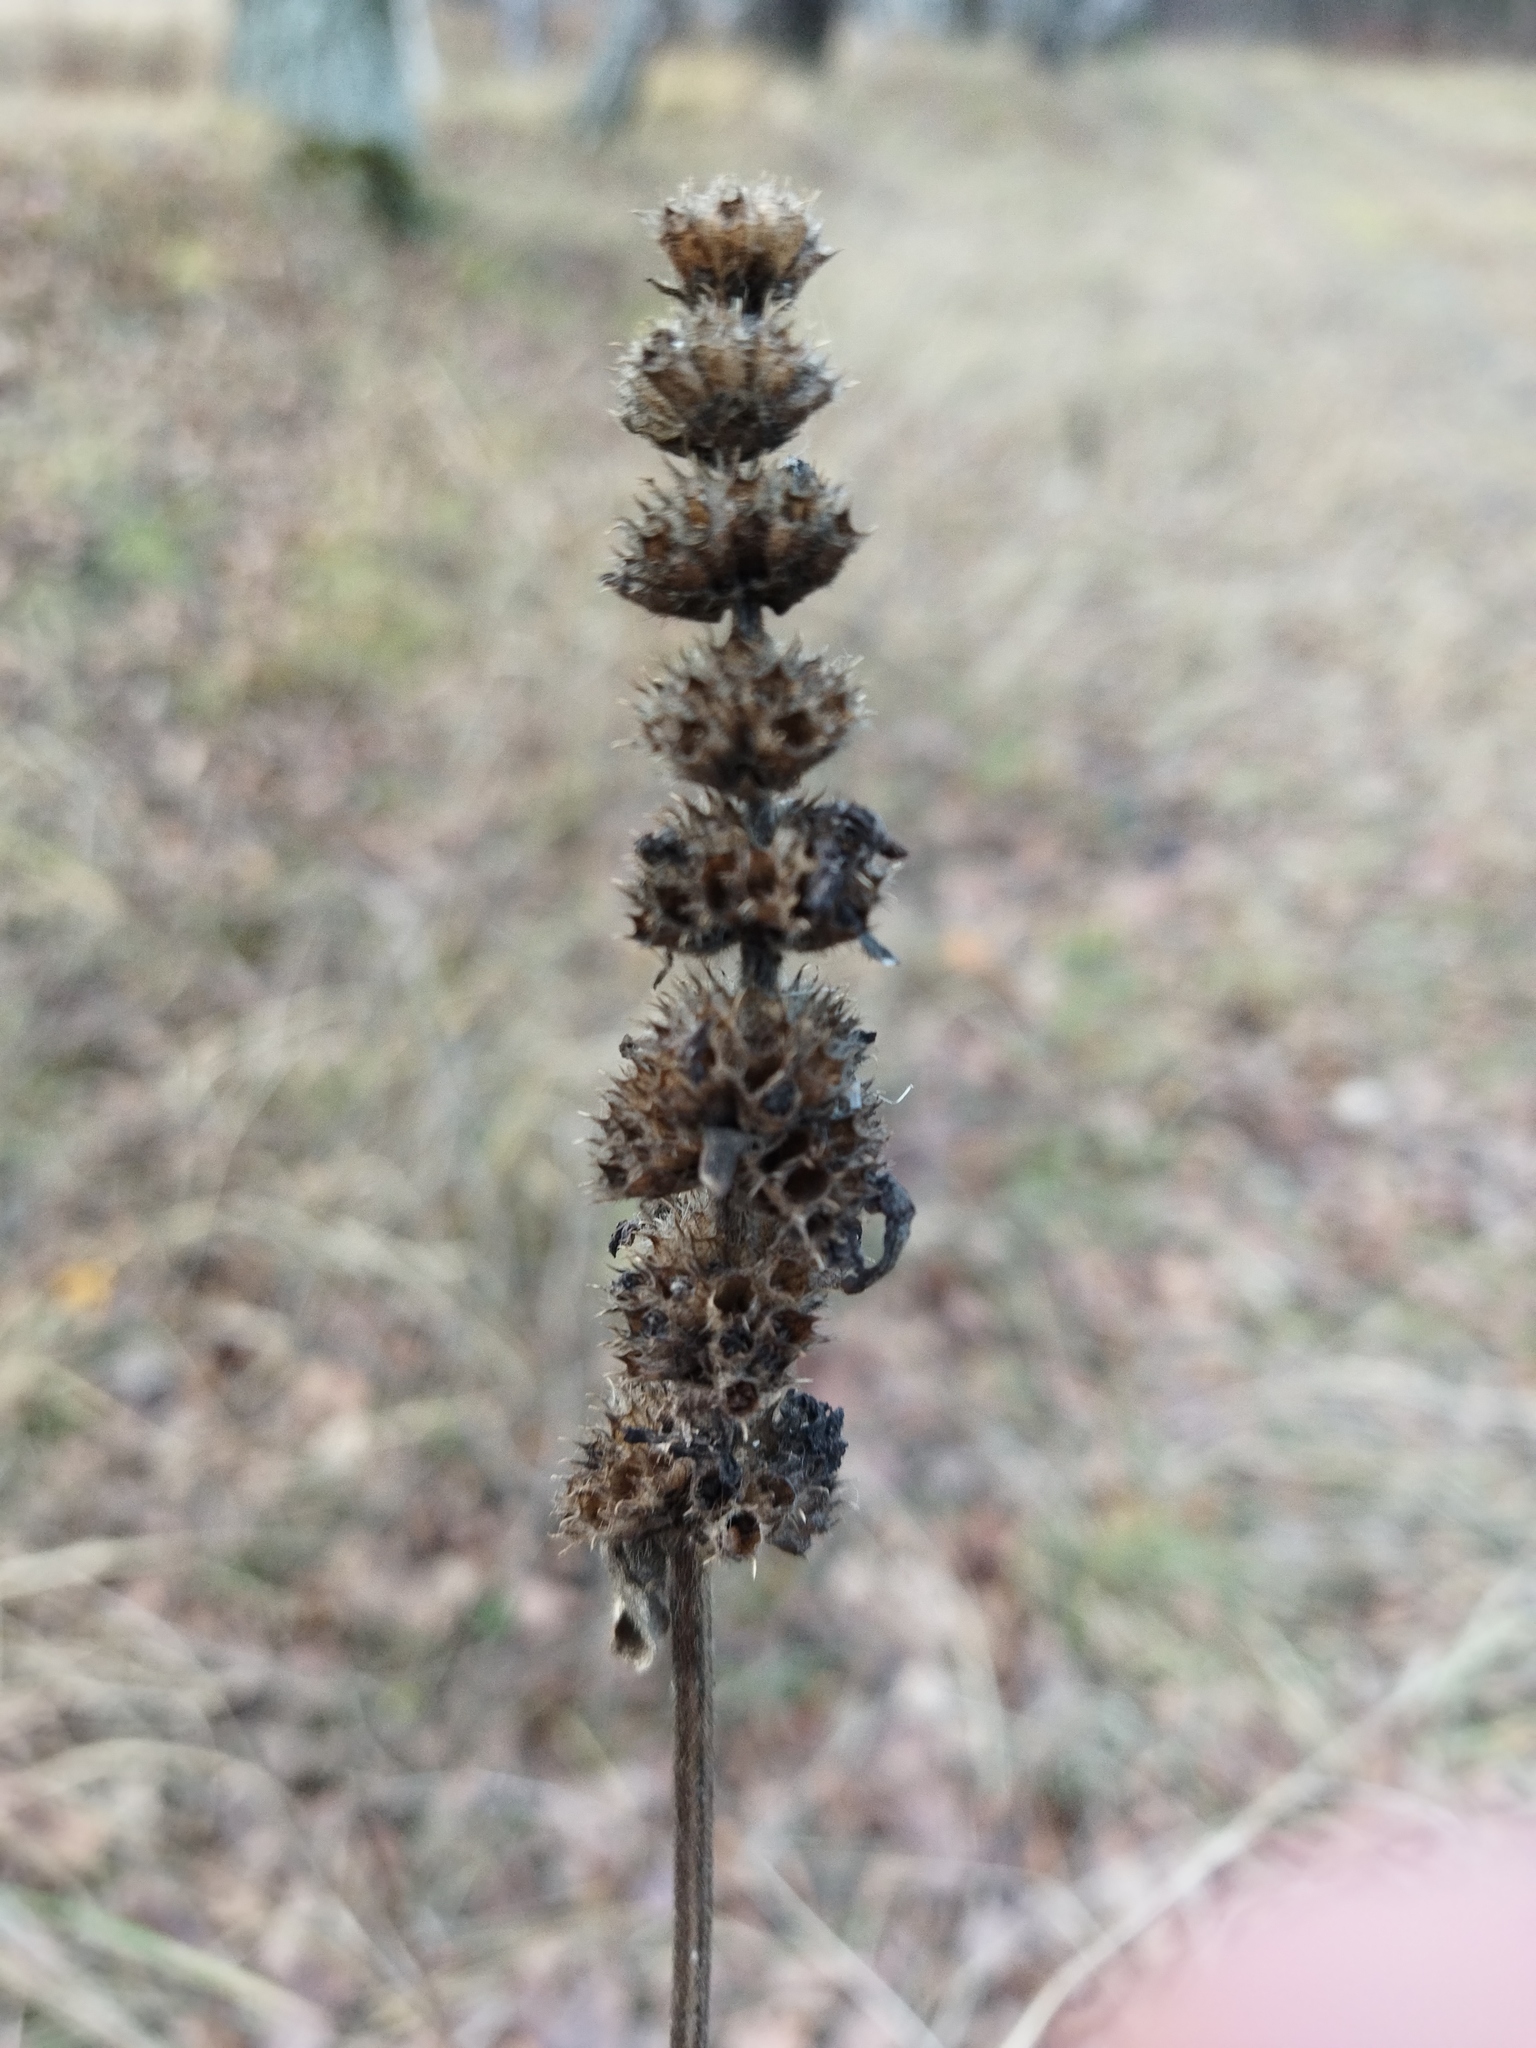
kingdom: Plantae
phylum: Tracheophyta
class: Magnoliopsida
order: Lamiales
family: Lamiaceae
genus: Leonurus
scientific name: Leonurus quinquelobatus
